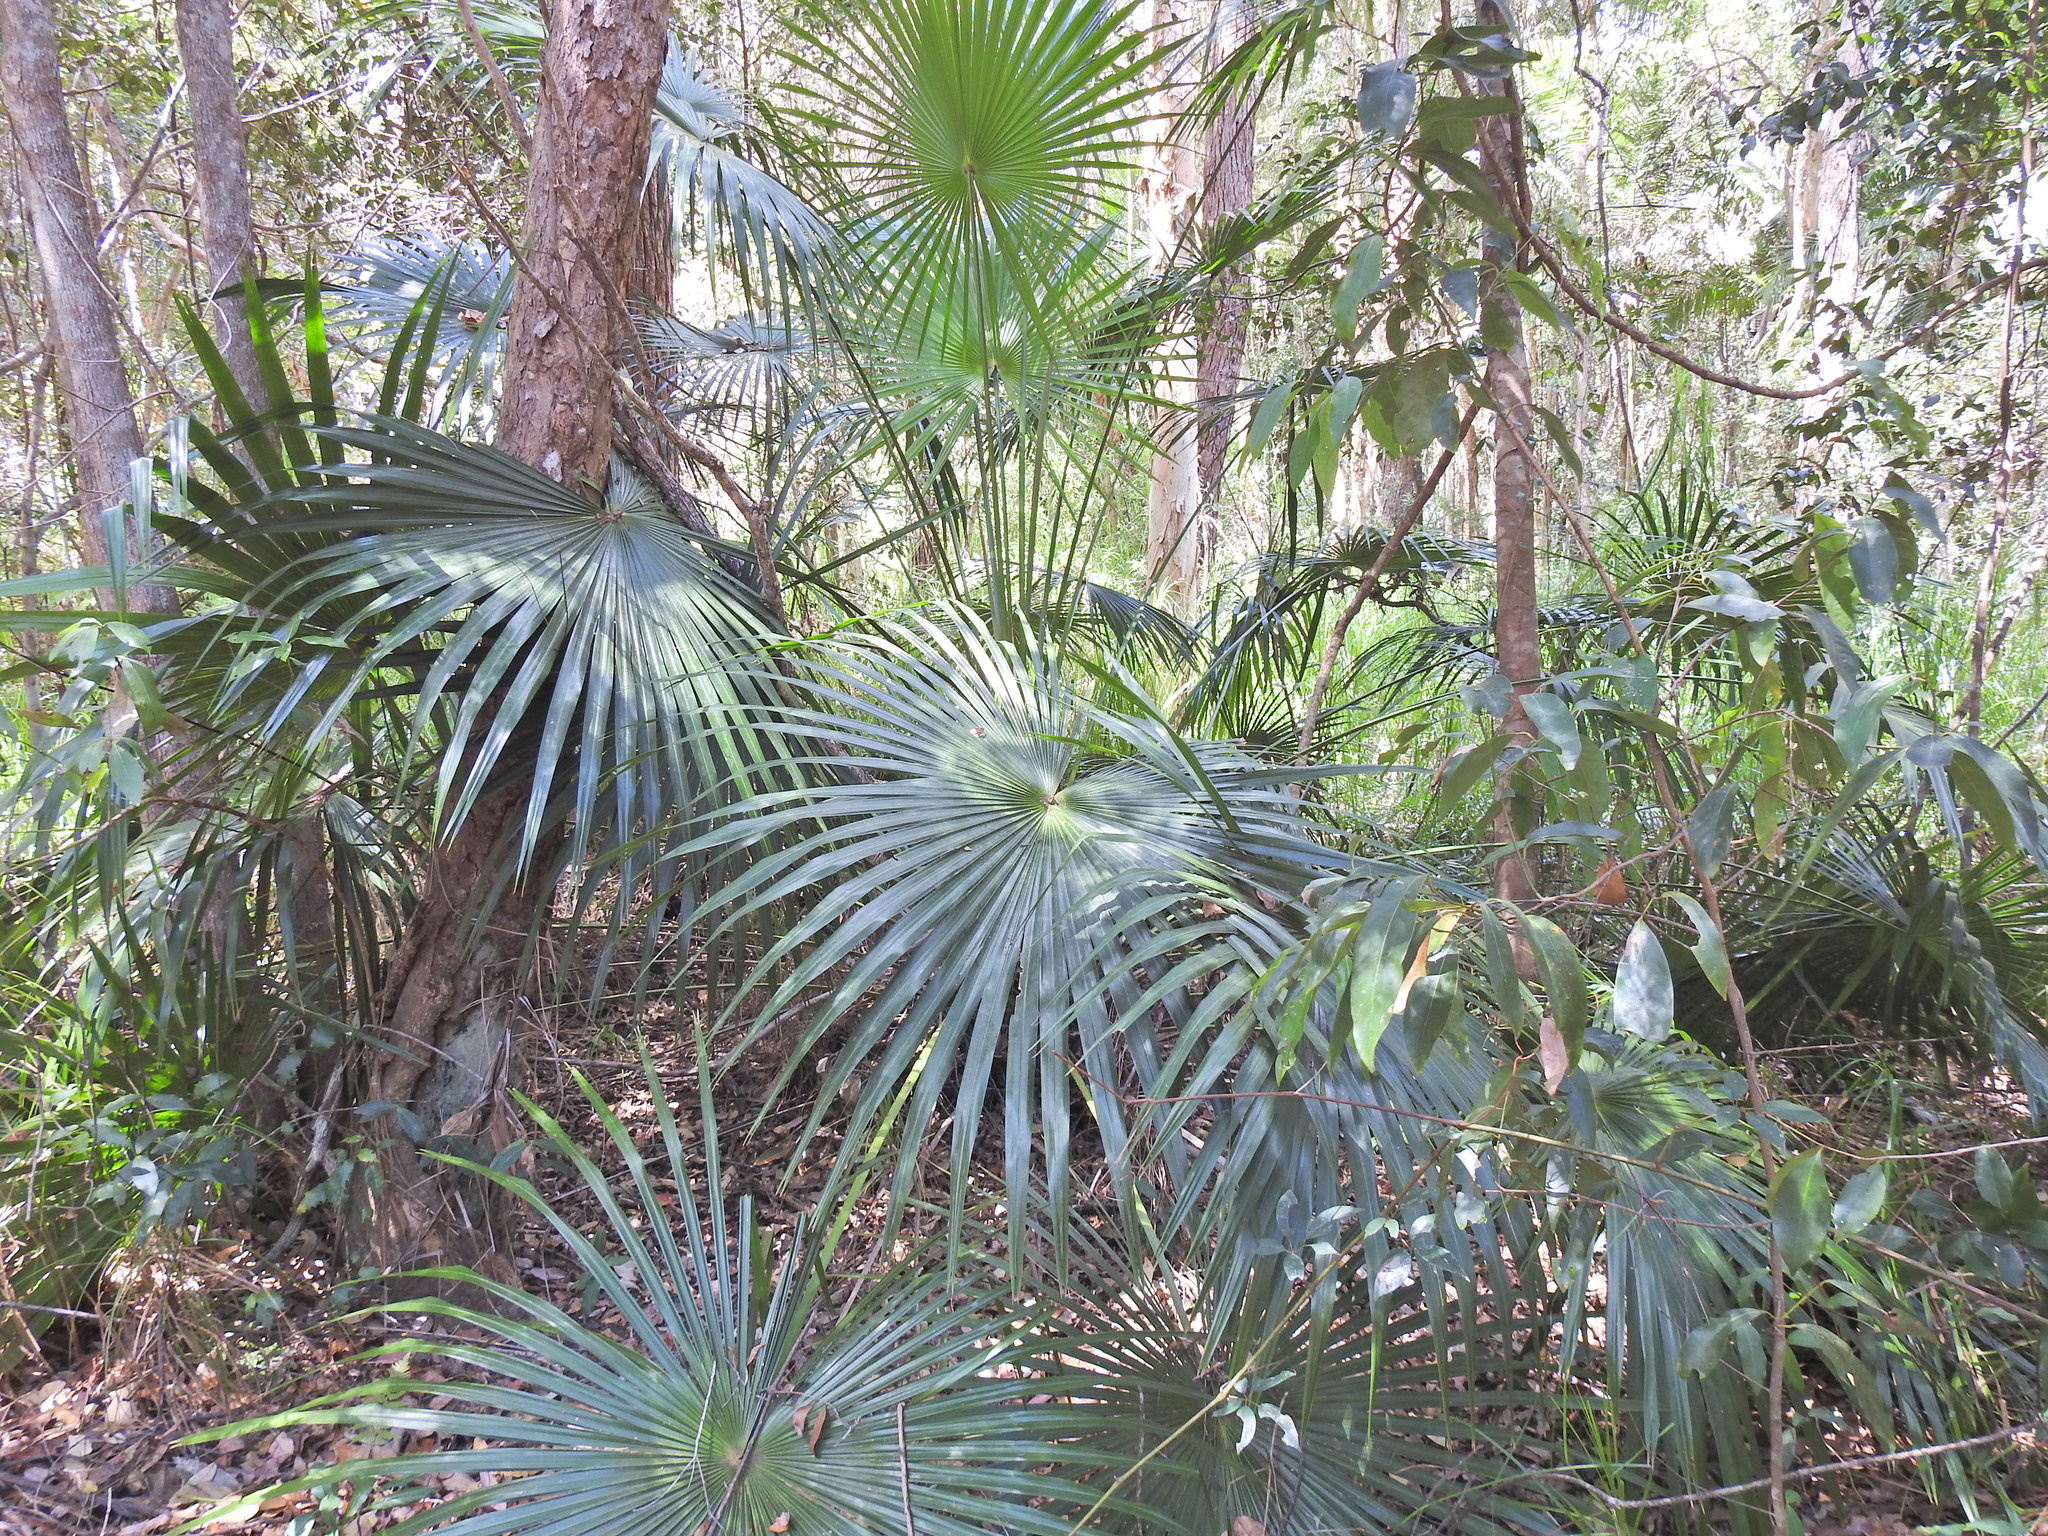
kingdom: Plantae
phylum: Tracheophyta
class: Liliopsida
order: Arecales
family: Arecaceae
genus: Livistona
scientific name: Livistona australis
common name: Cabbage fan palm
